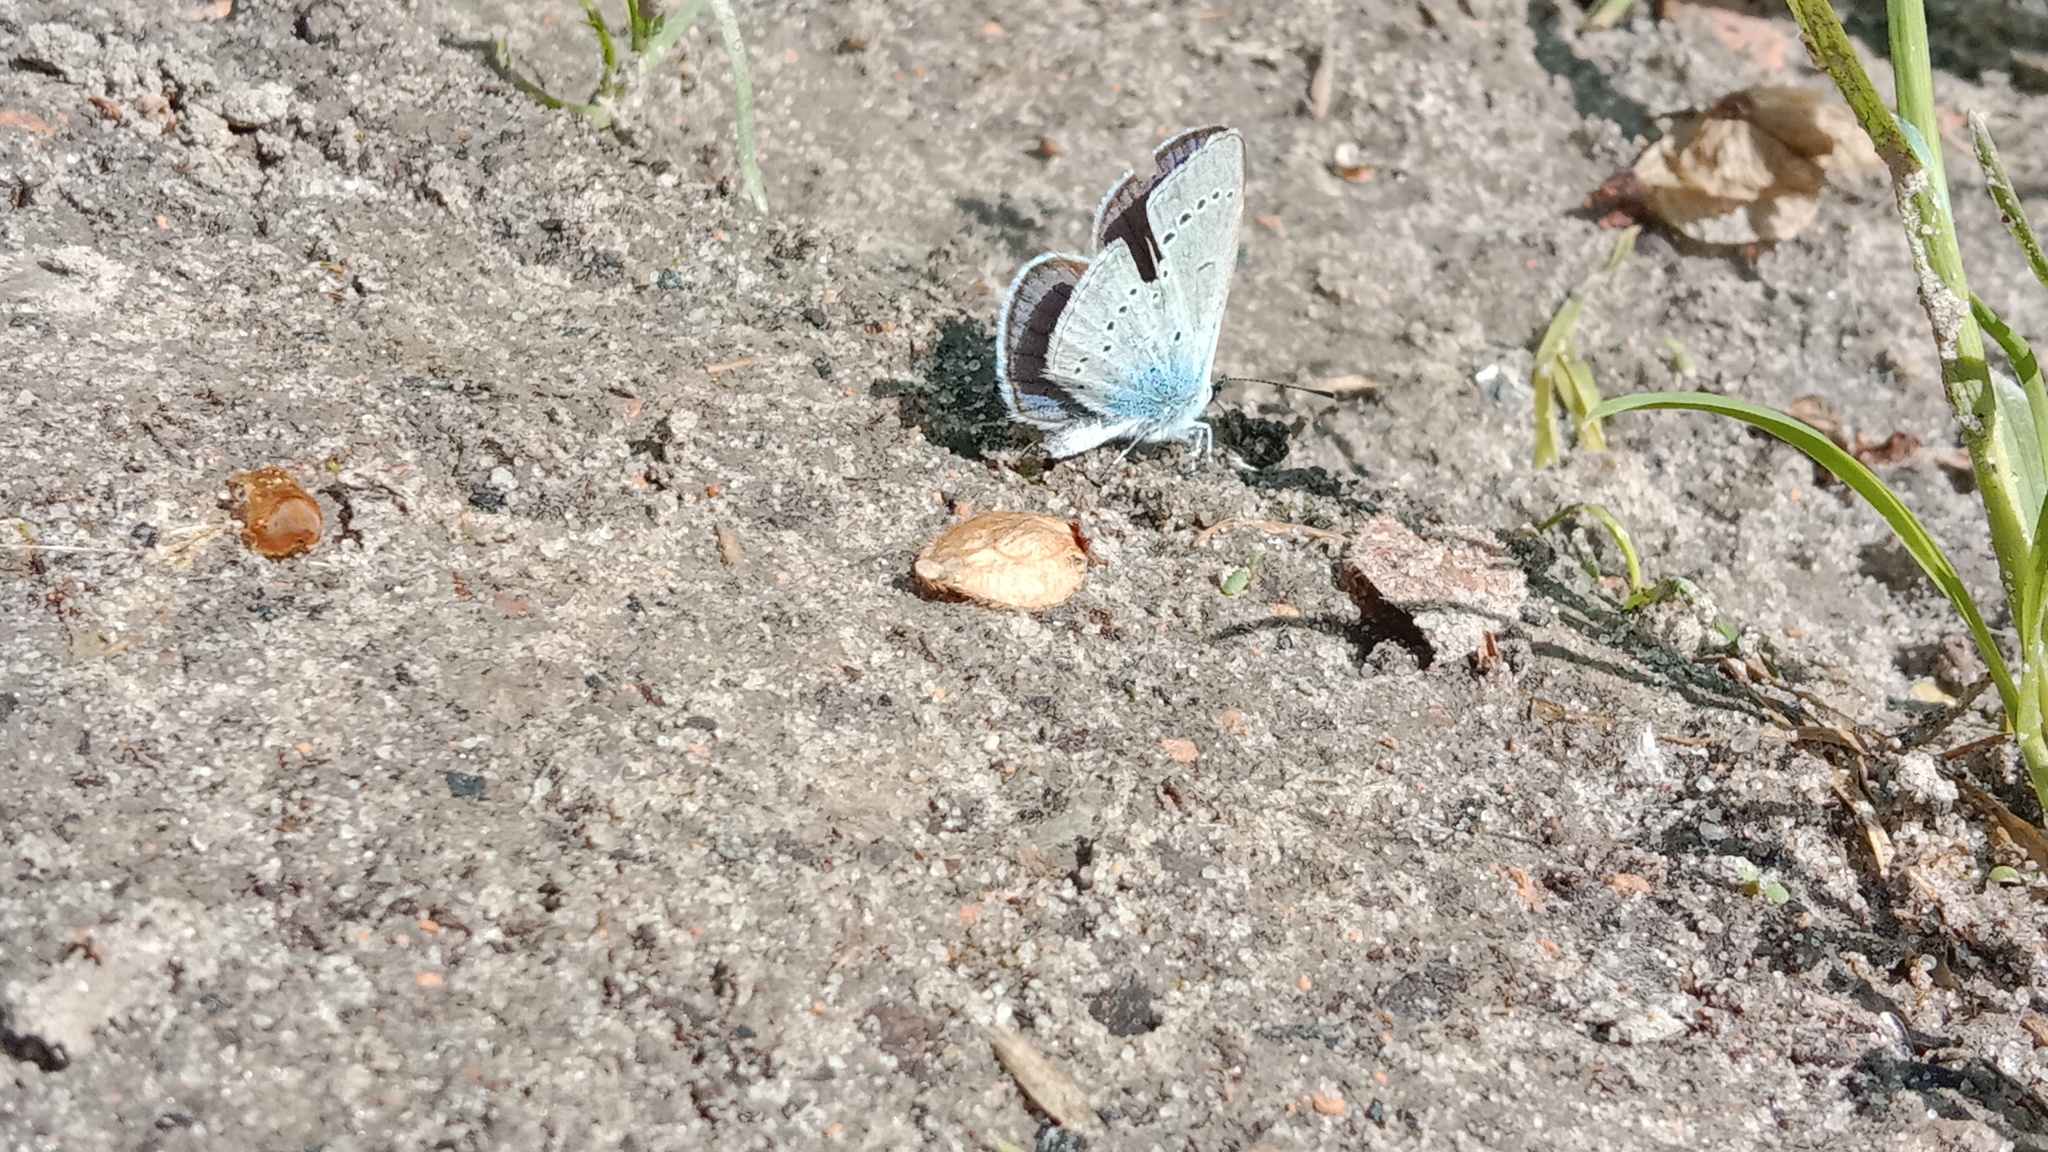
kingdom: Animalia
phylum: Arthropoda
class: Insecta
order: Lepidoptera
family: Lycaenidae
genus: Everes
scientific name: Everes sebrus
